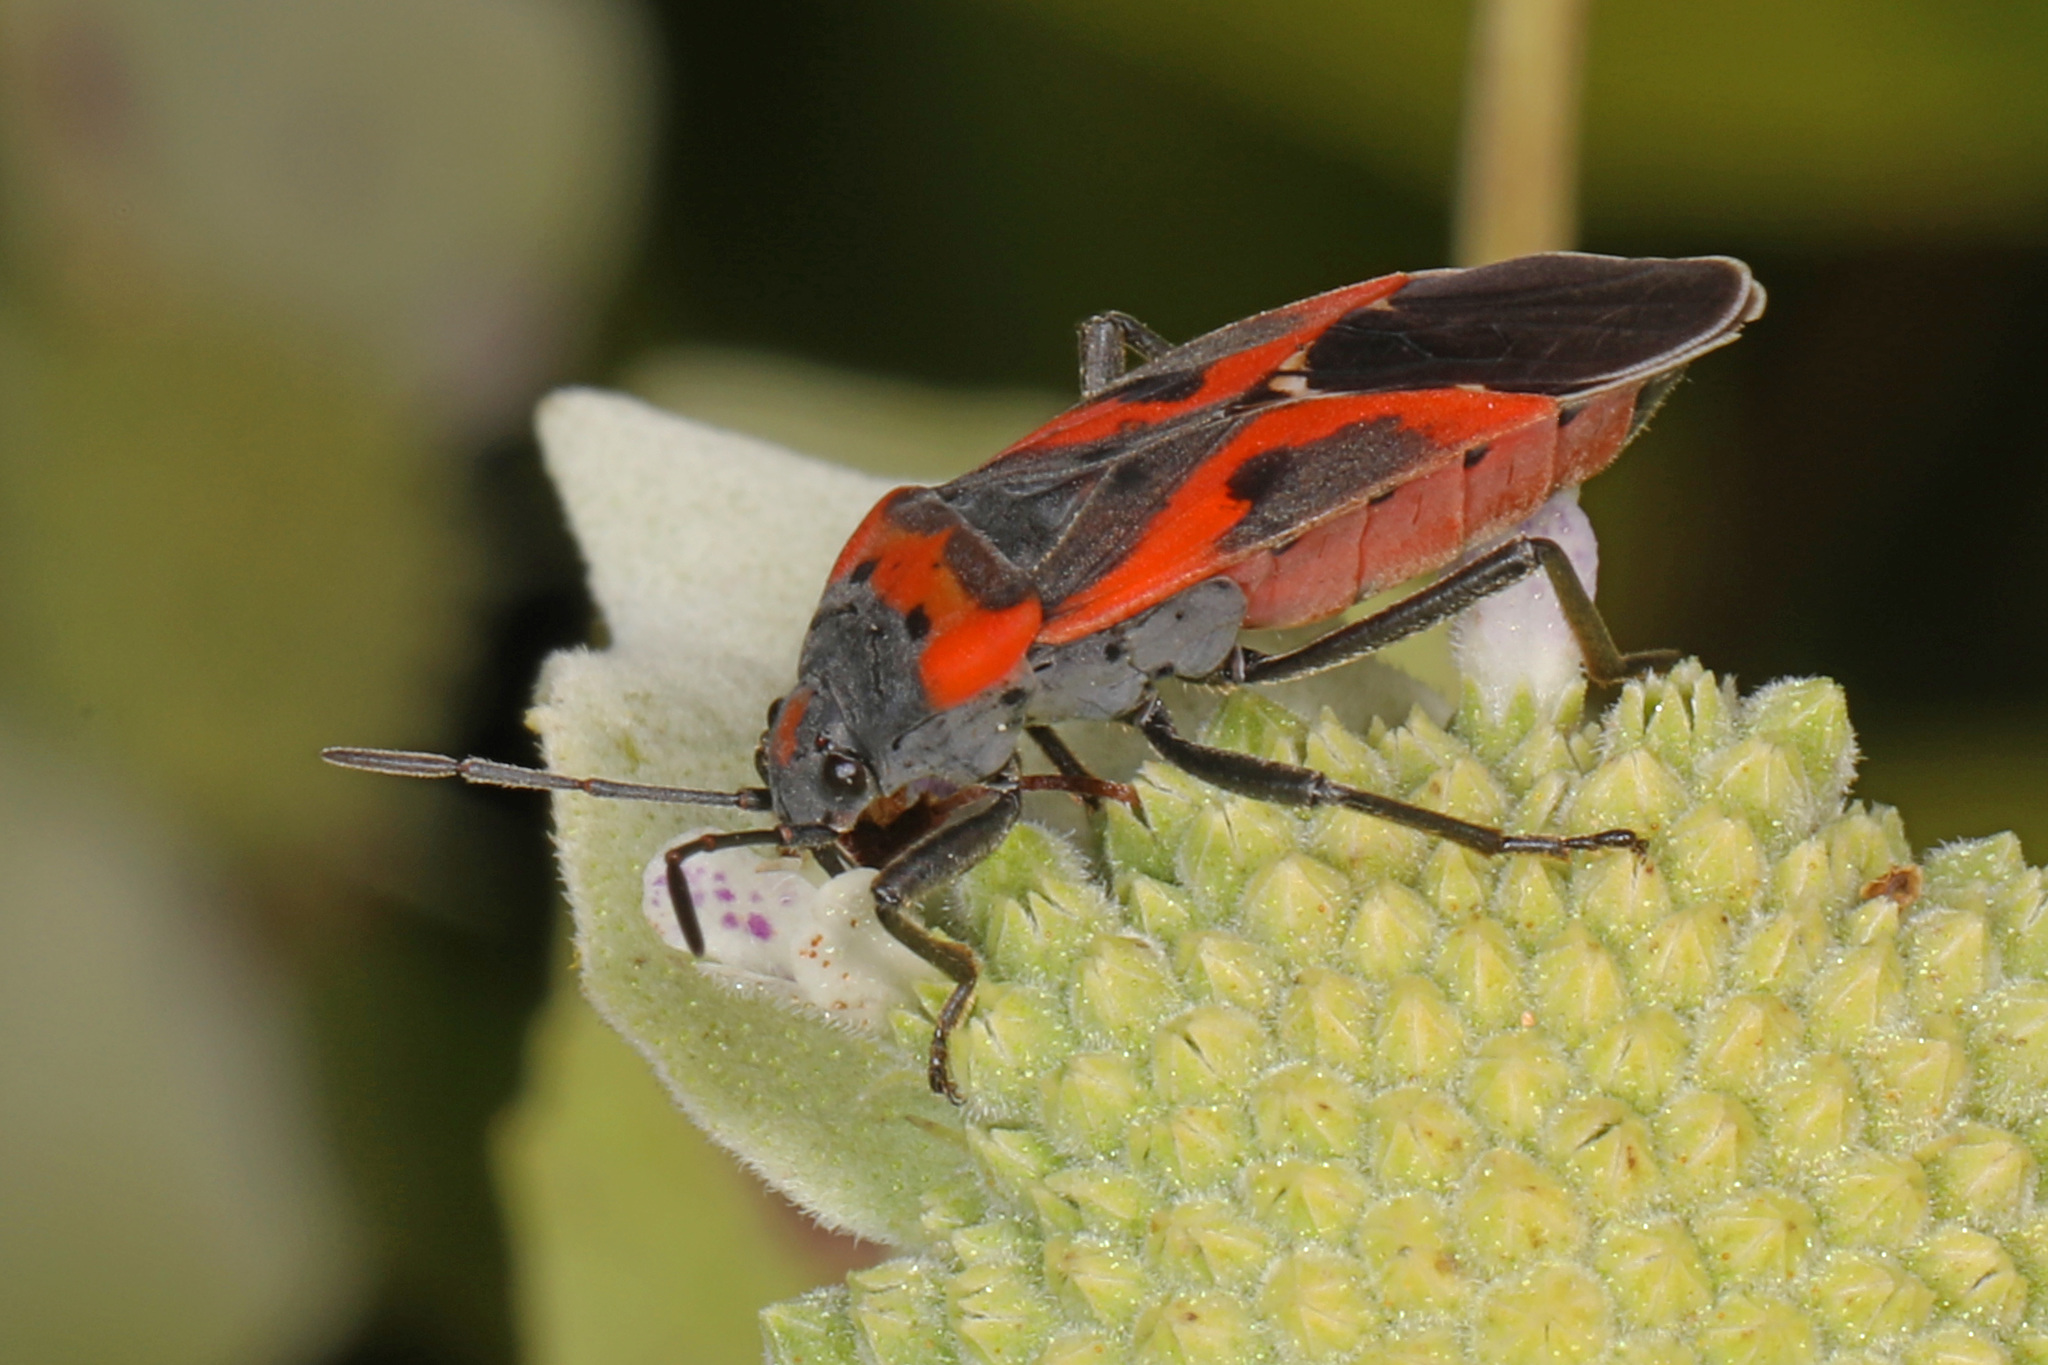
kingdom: Animalia
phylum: Arthropoda
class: Insecta
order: Hemiptera
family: Lygaeidae
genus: Lygaeus
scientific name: Lygaeus kalmii
